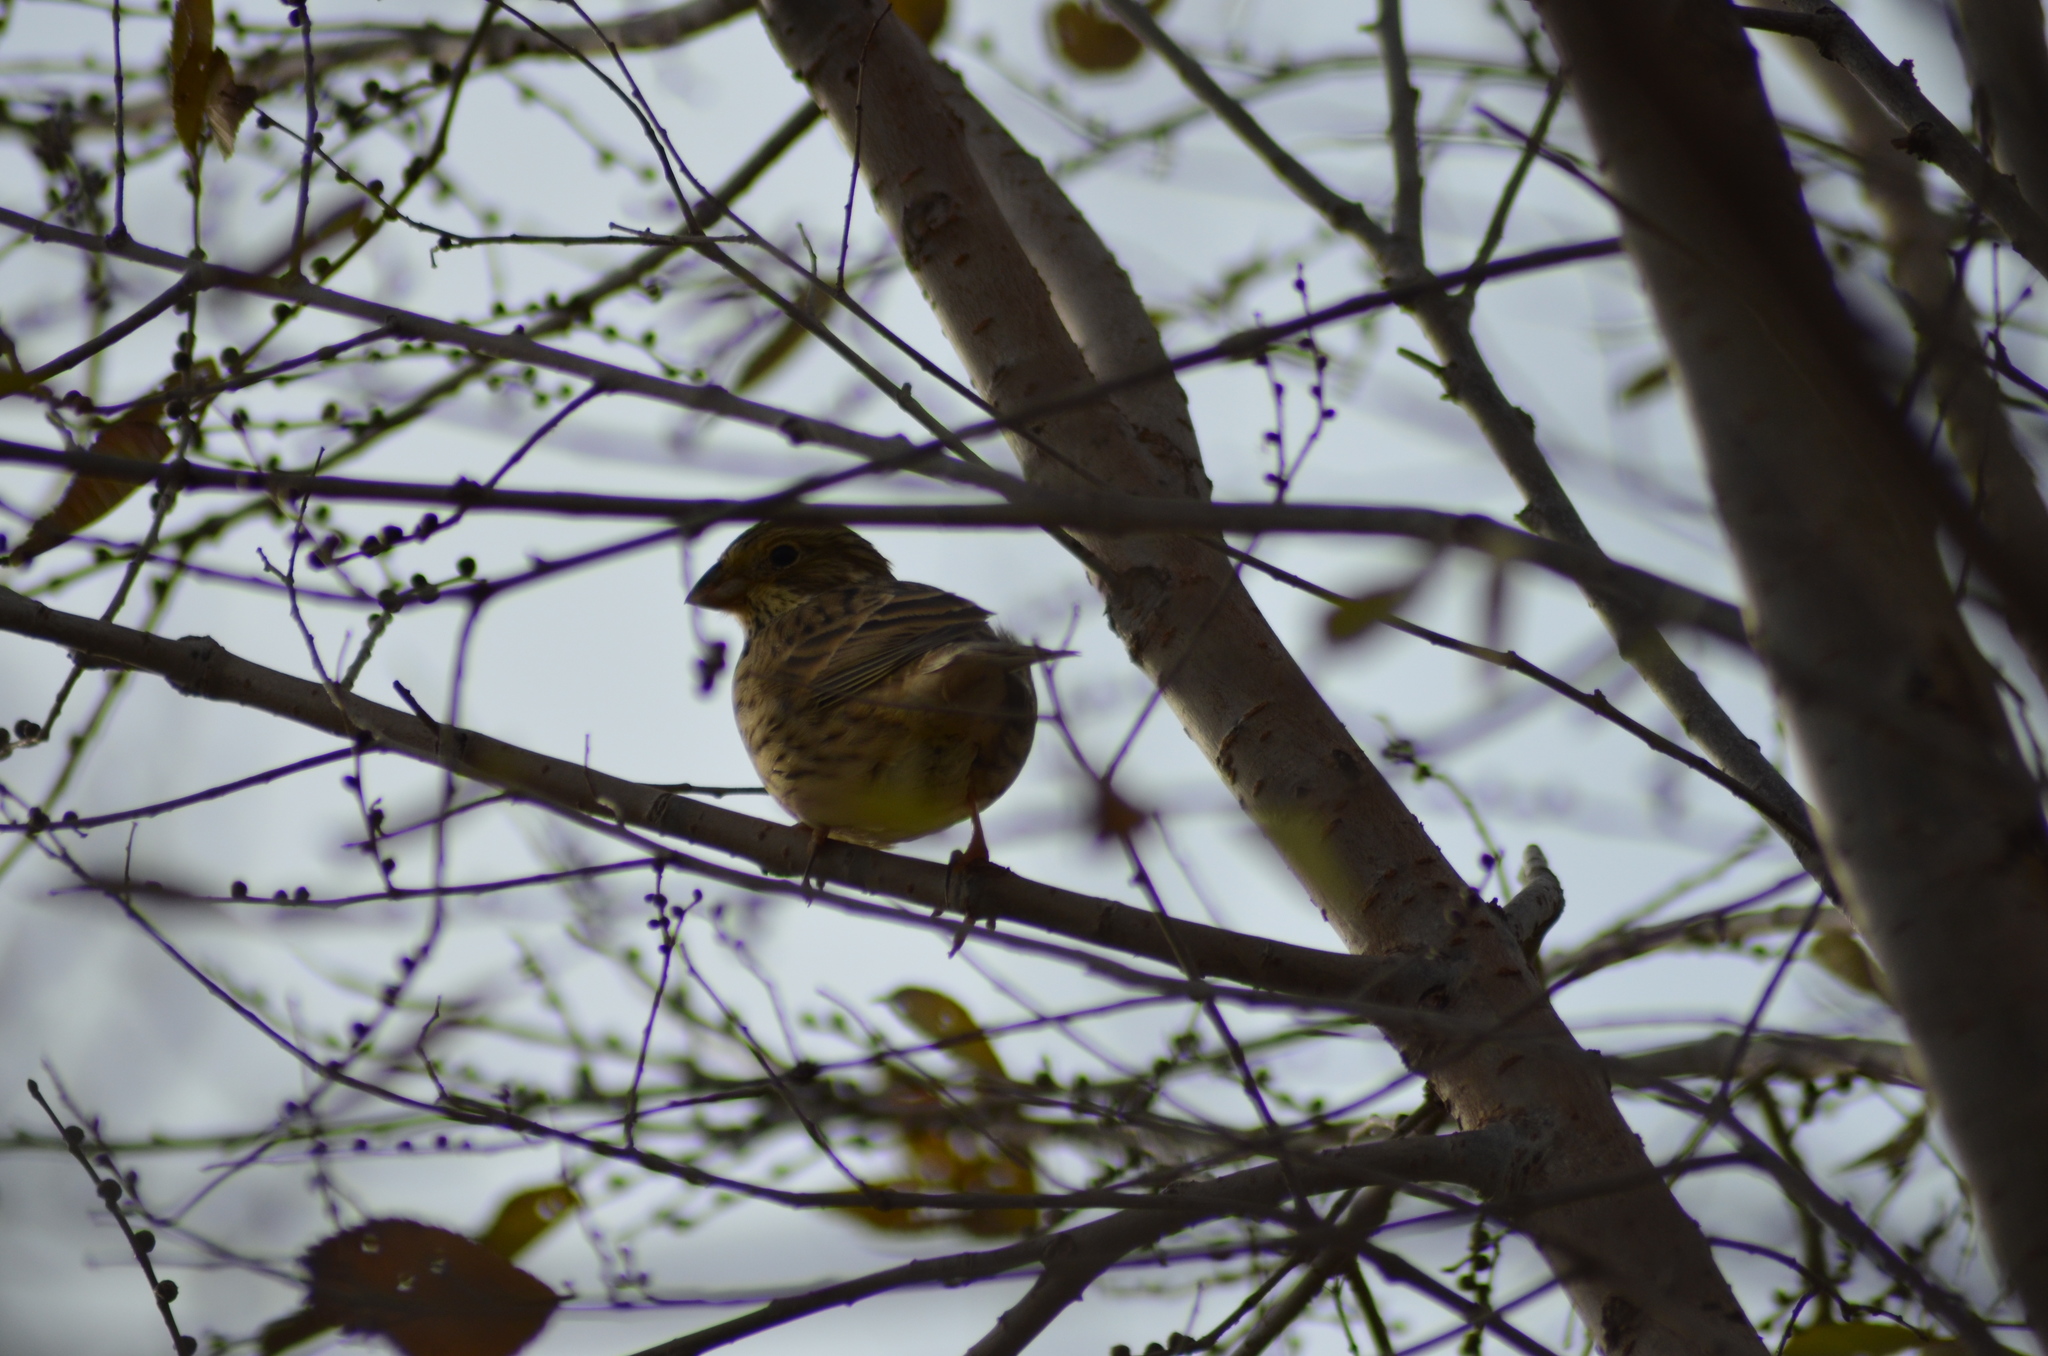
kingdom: Animalia
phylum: Chordata
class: Aves
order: Passeriformes
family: Emberizidae
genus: Emberiza
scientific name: Emberiza calandra
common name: Corn bunting
